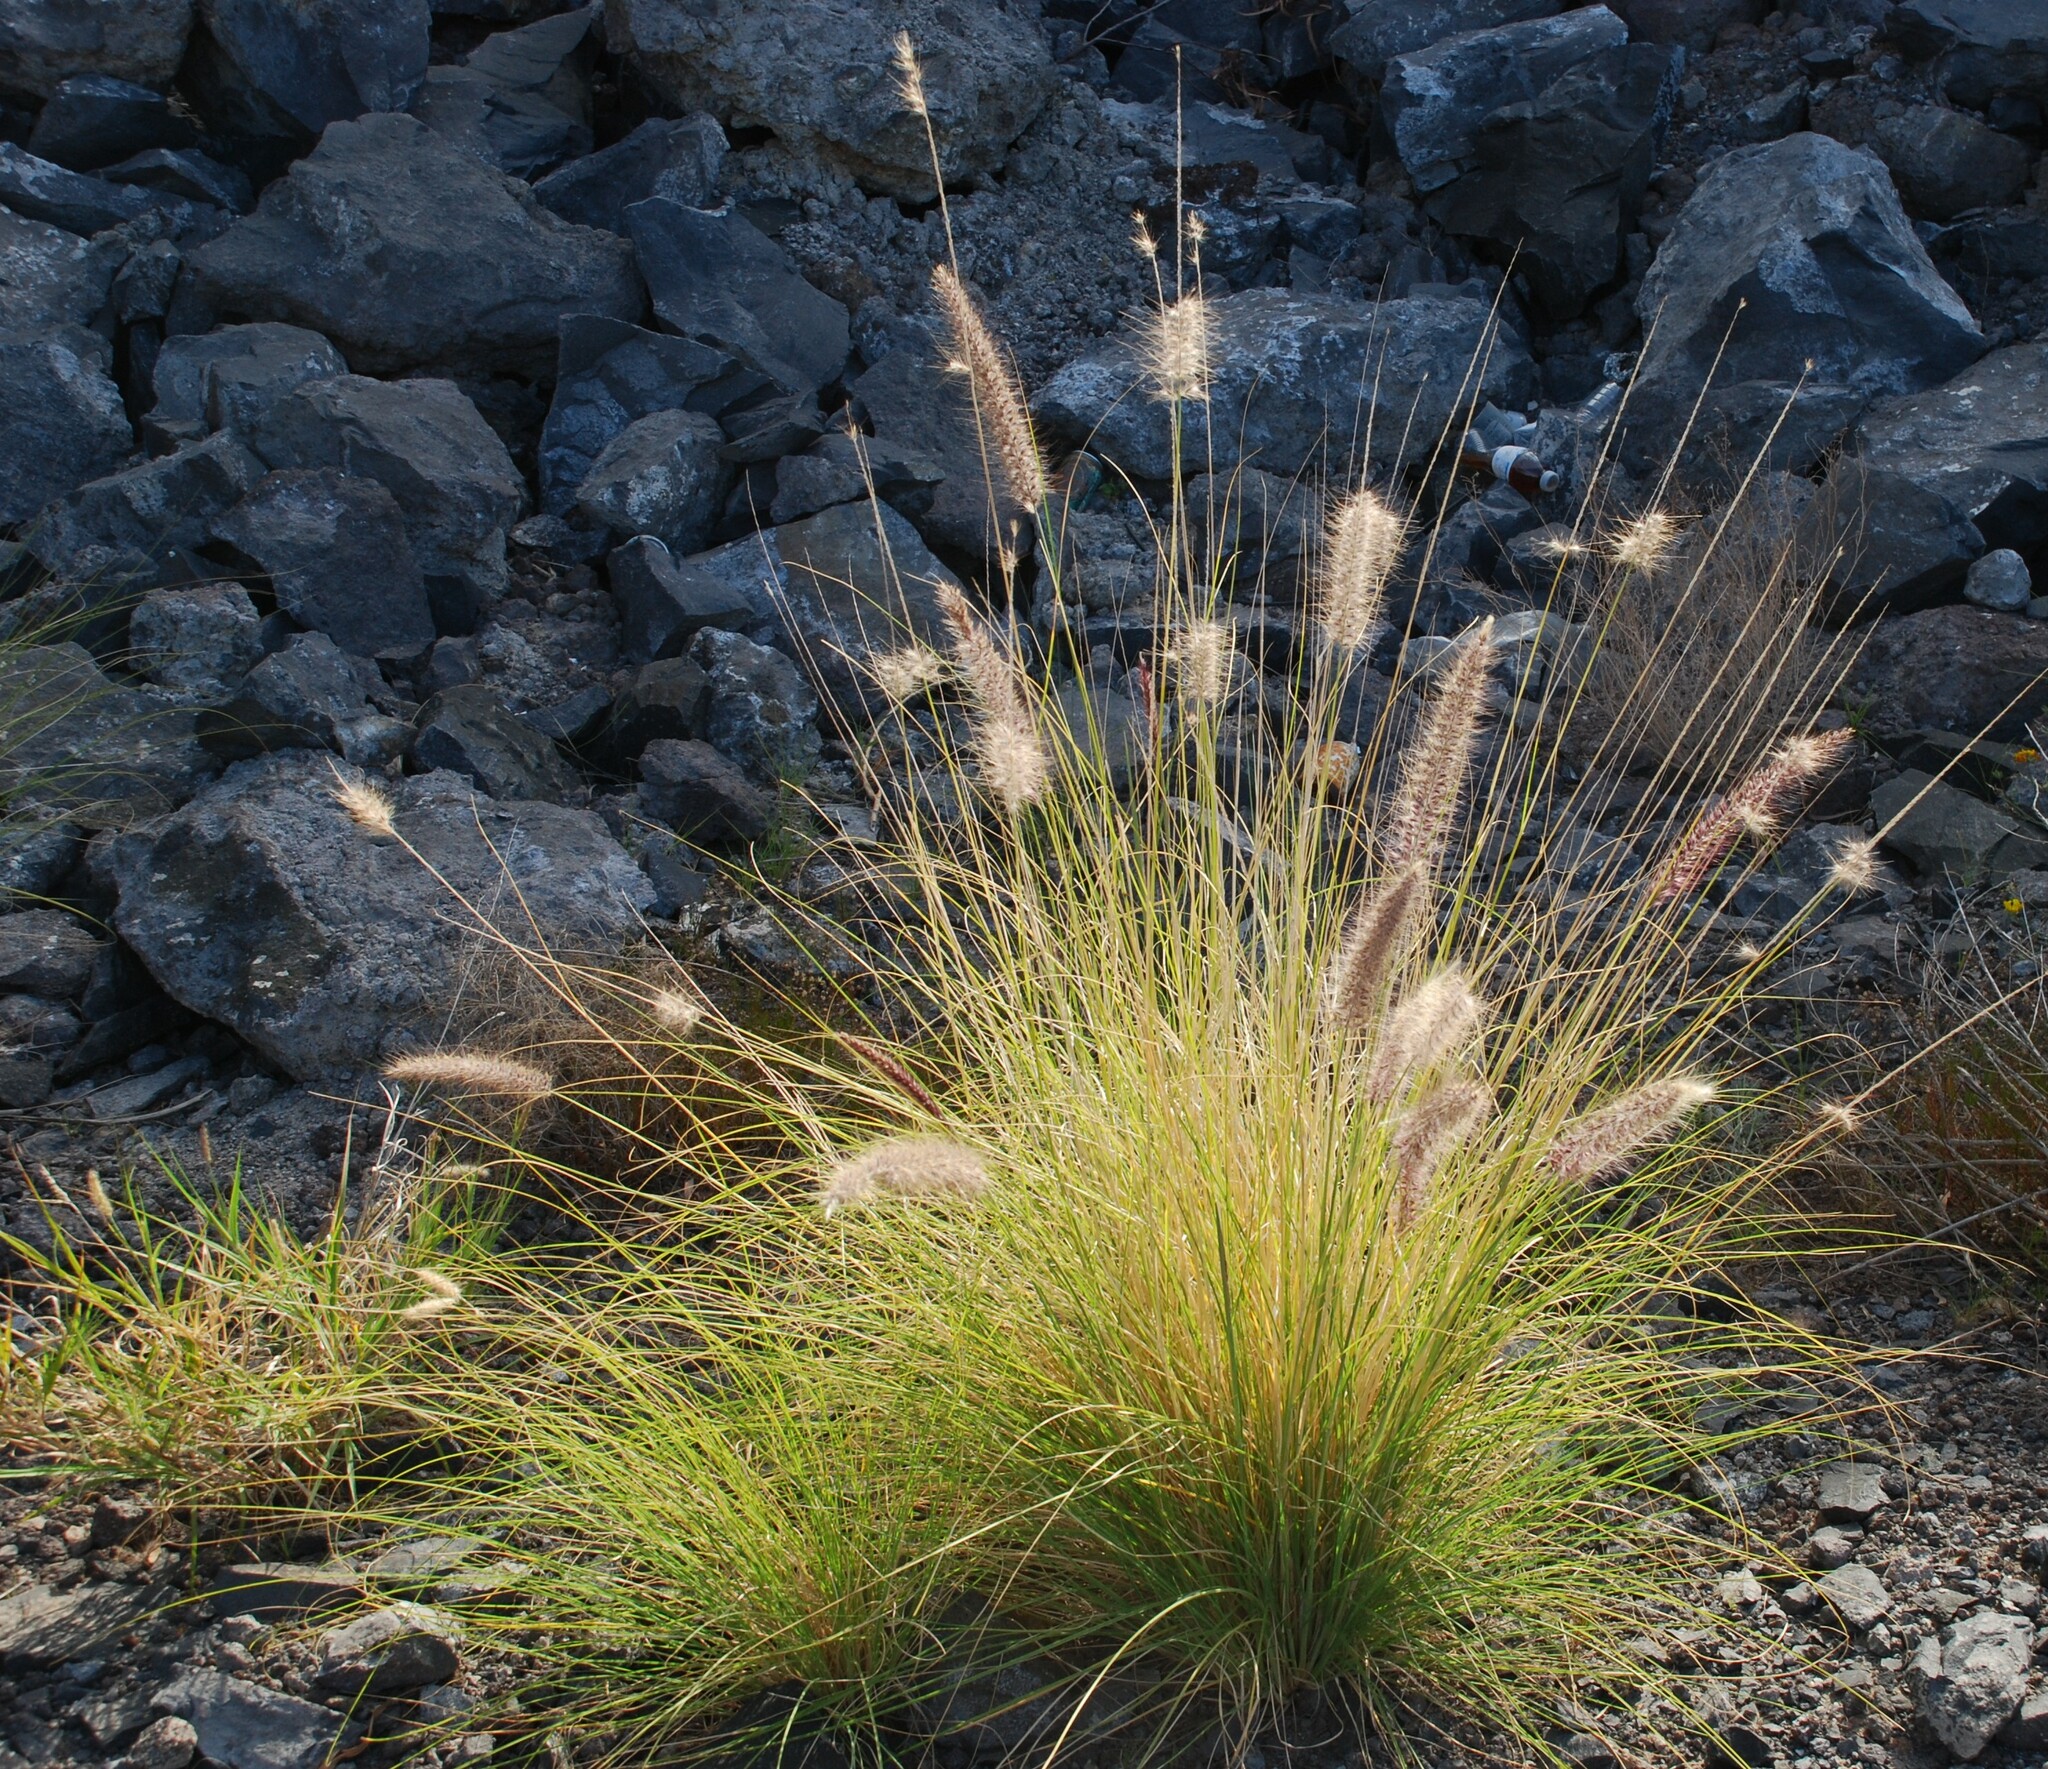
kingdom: Plantae
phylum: Tracheophyta
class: Liliopsida
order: Poales
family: Poaceae
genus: Cenchrus
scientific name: Cenchrus setaceus
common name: Crimson fountaingrass
